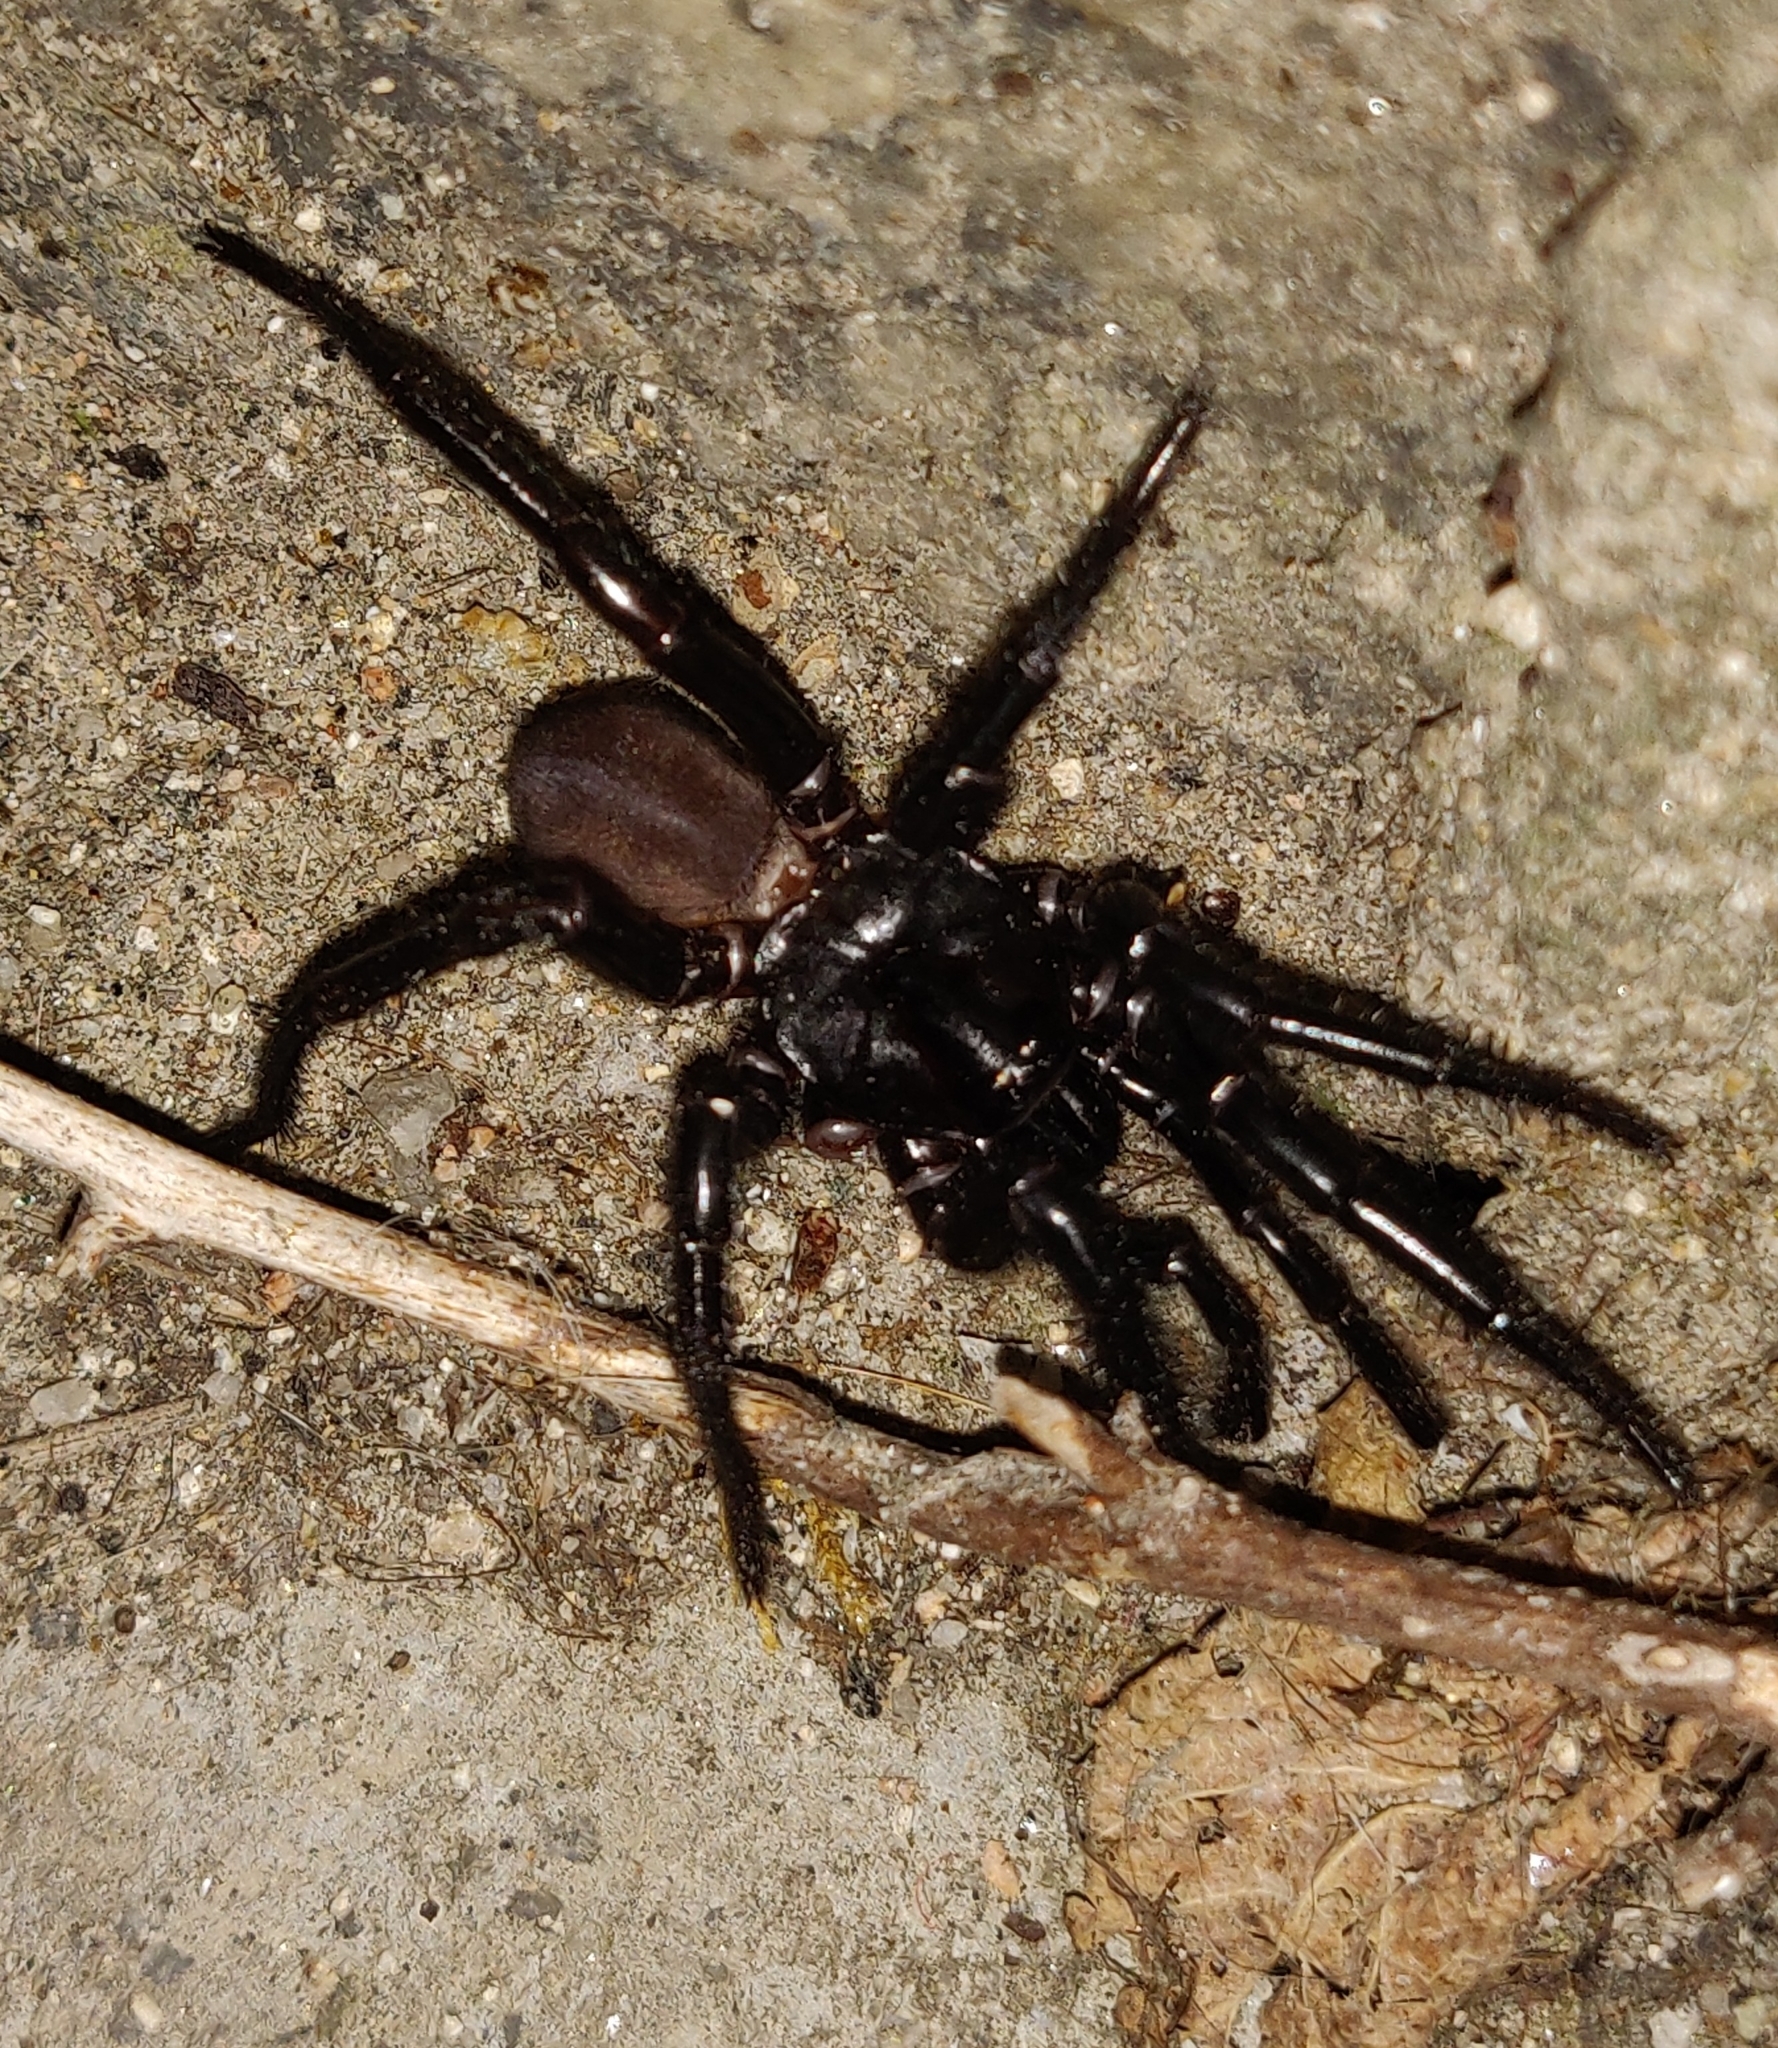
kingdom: Animalia
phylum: Arthropoda
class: Arachnida
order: Araneae
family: Ctenizidae
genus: Cteniza
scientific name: Cteniza sauvagesi
